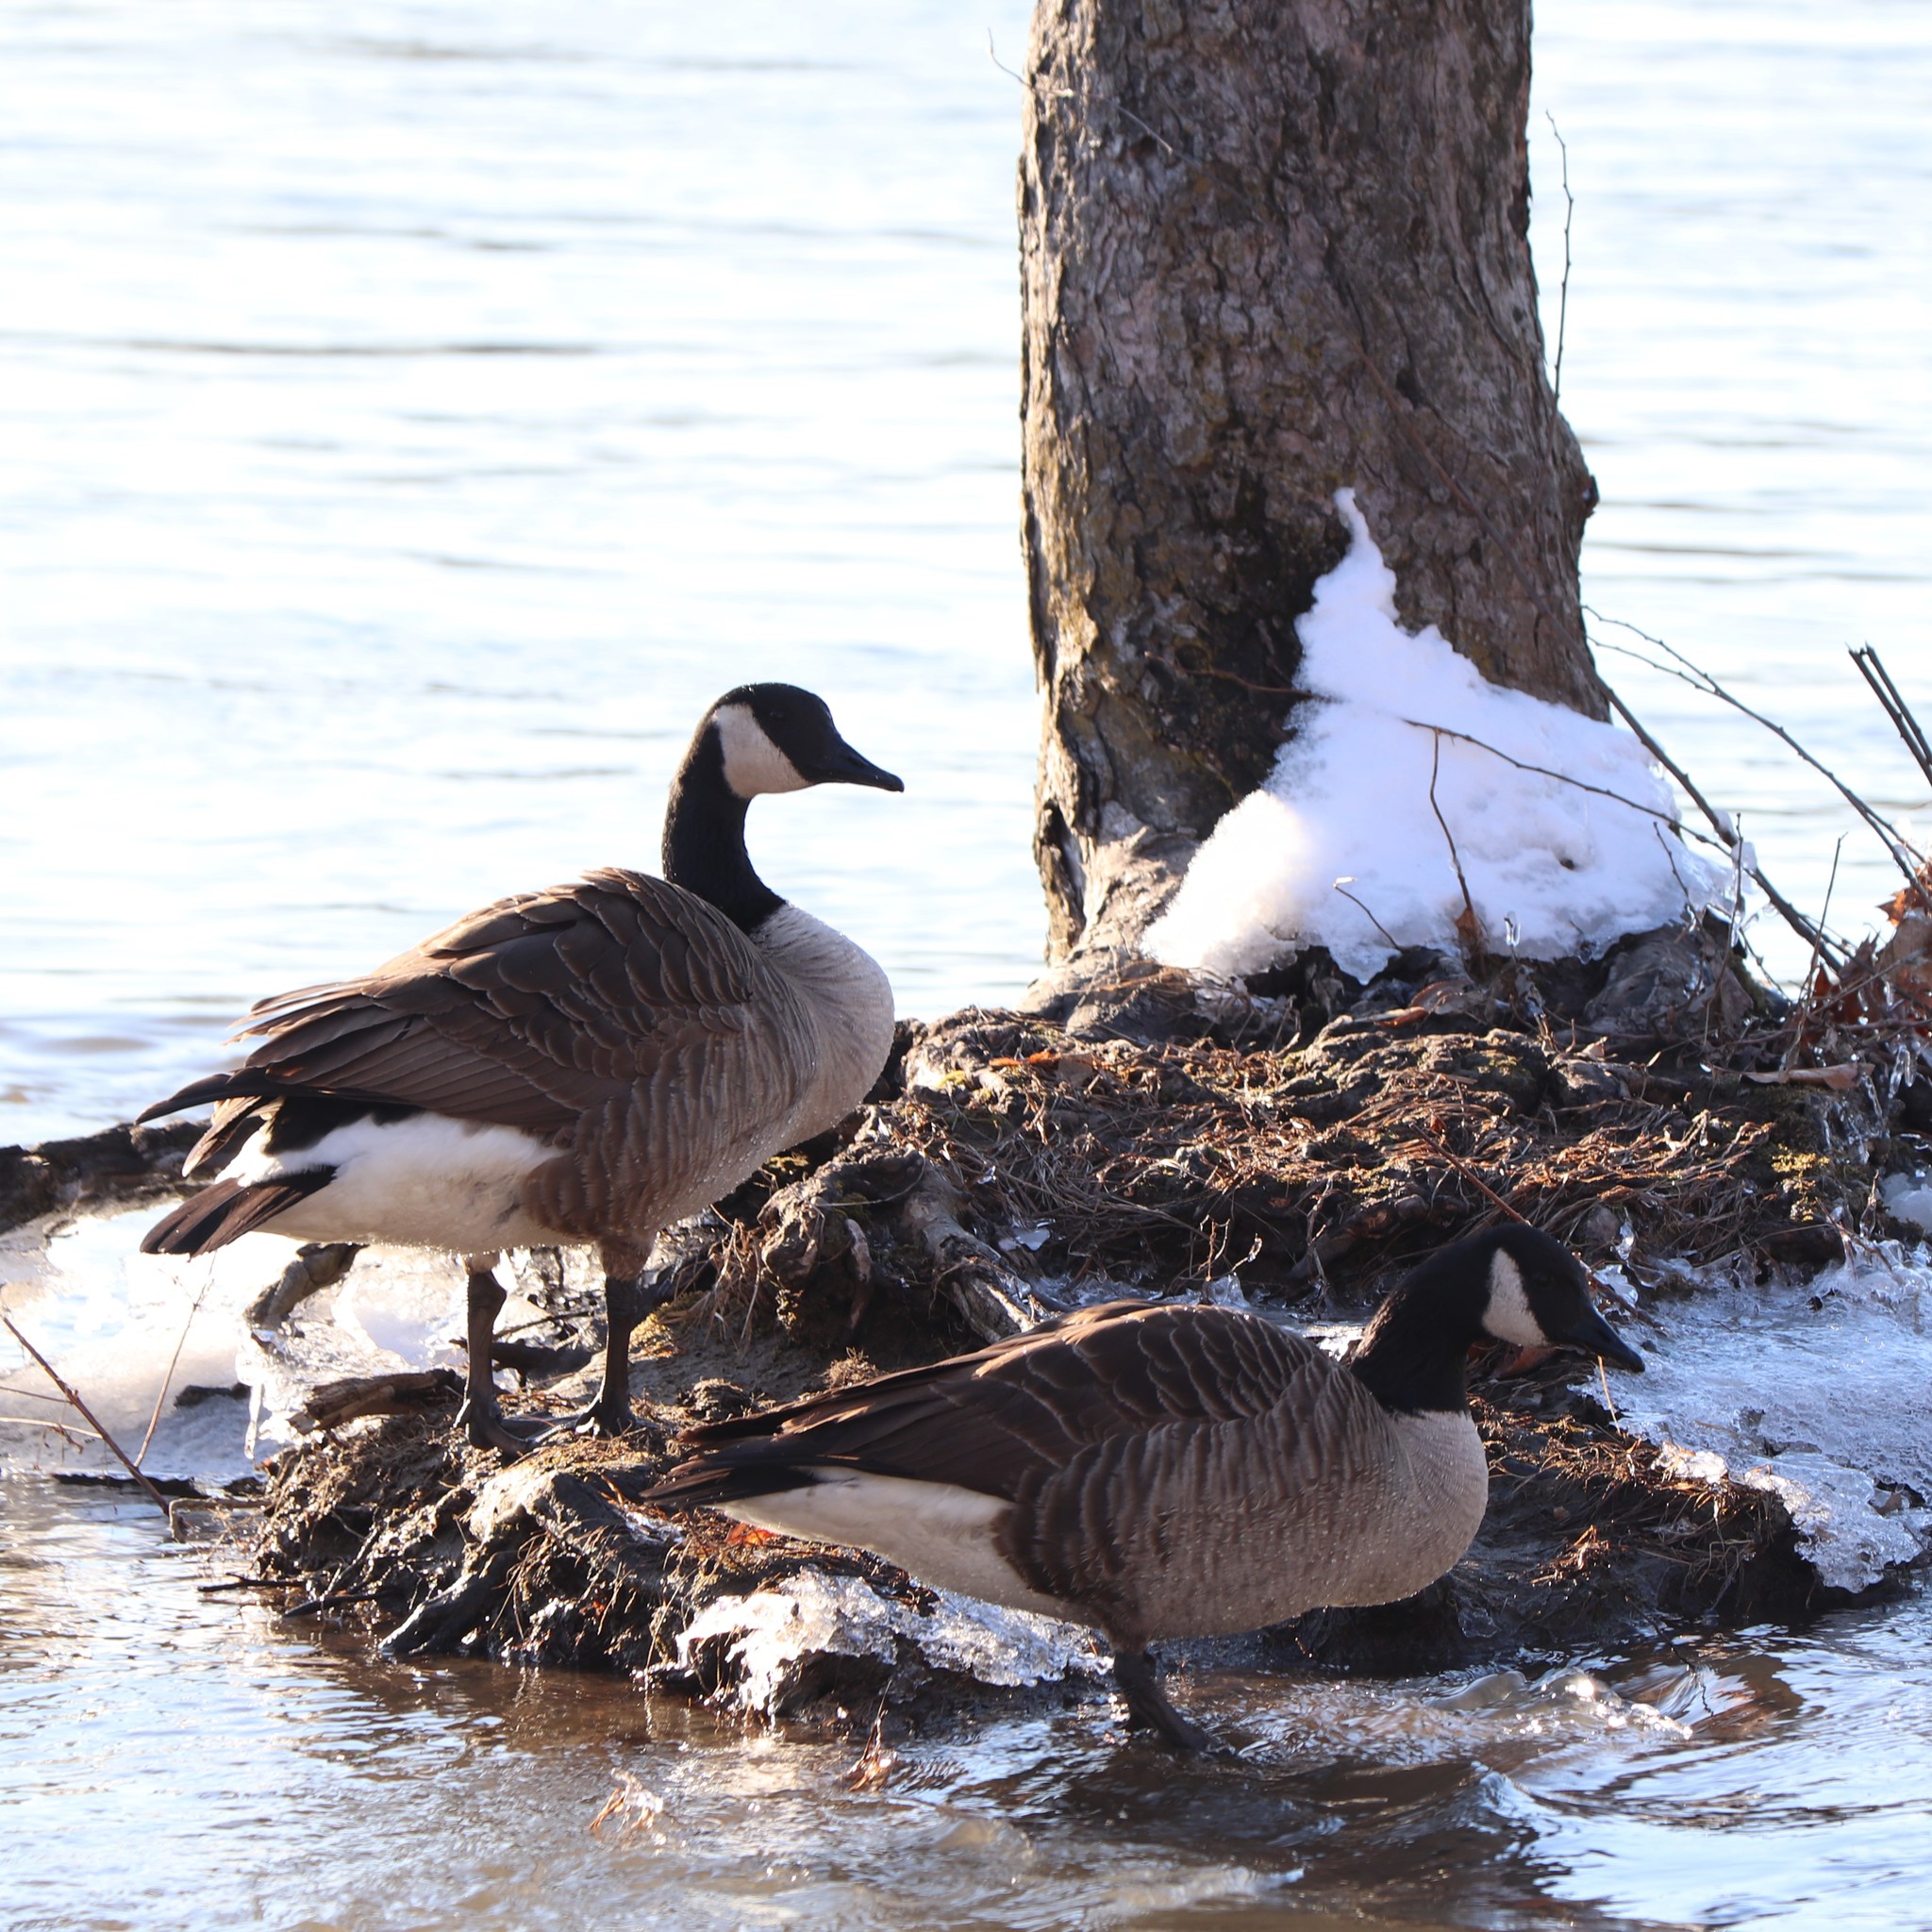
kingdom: Animalia
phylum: Chordata
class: Aves
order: Anseriformes
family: Anatidae
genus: Branta
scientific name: Branta canadensis
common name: Canada goose
